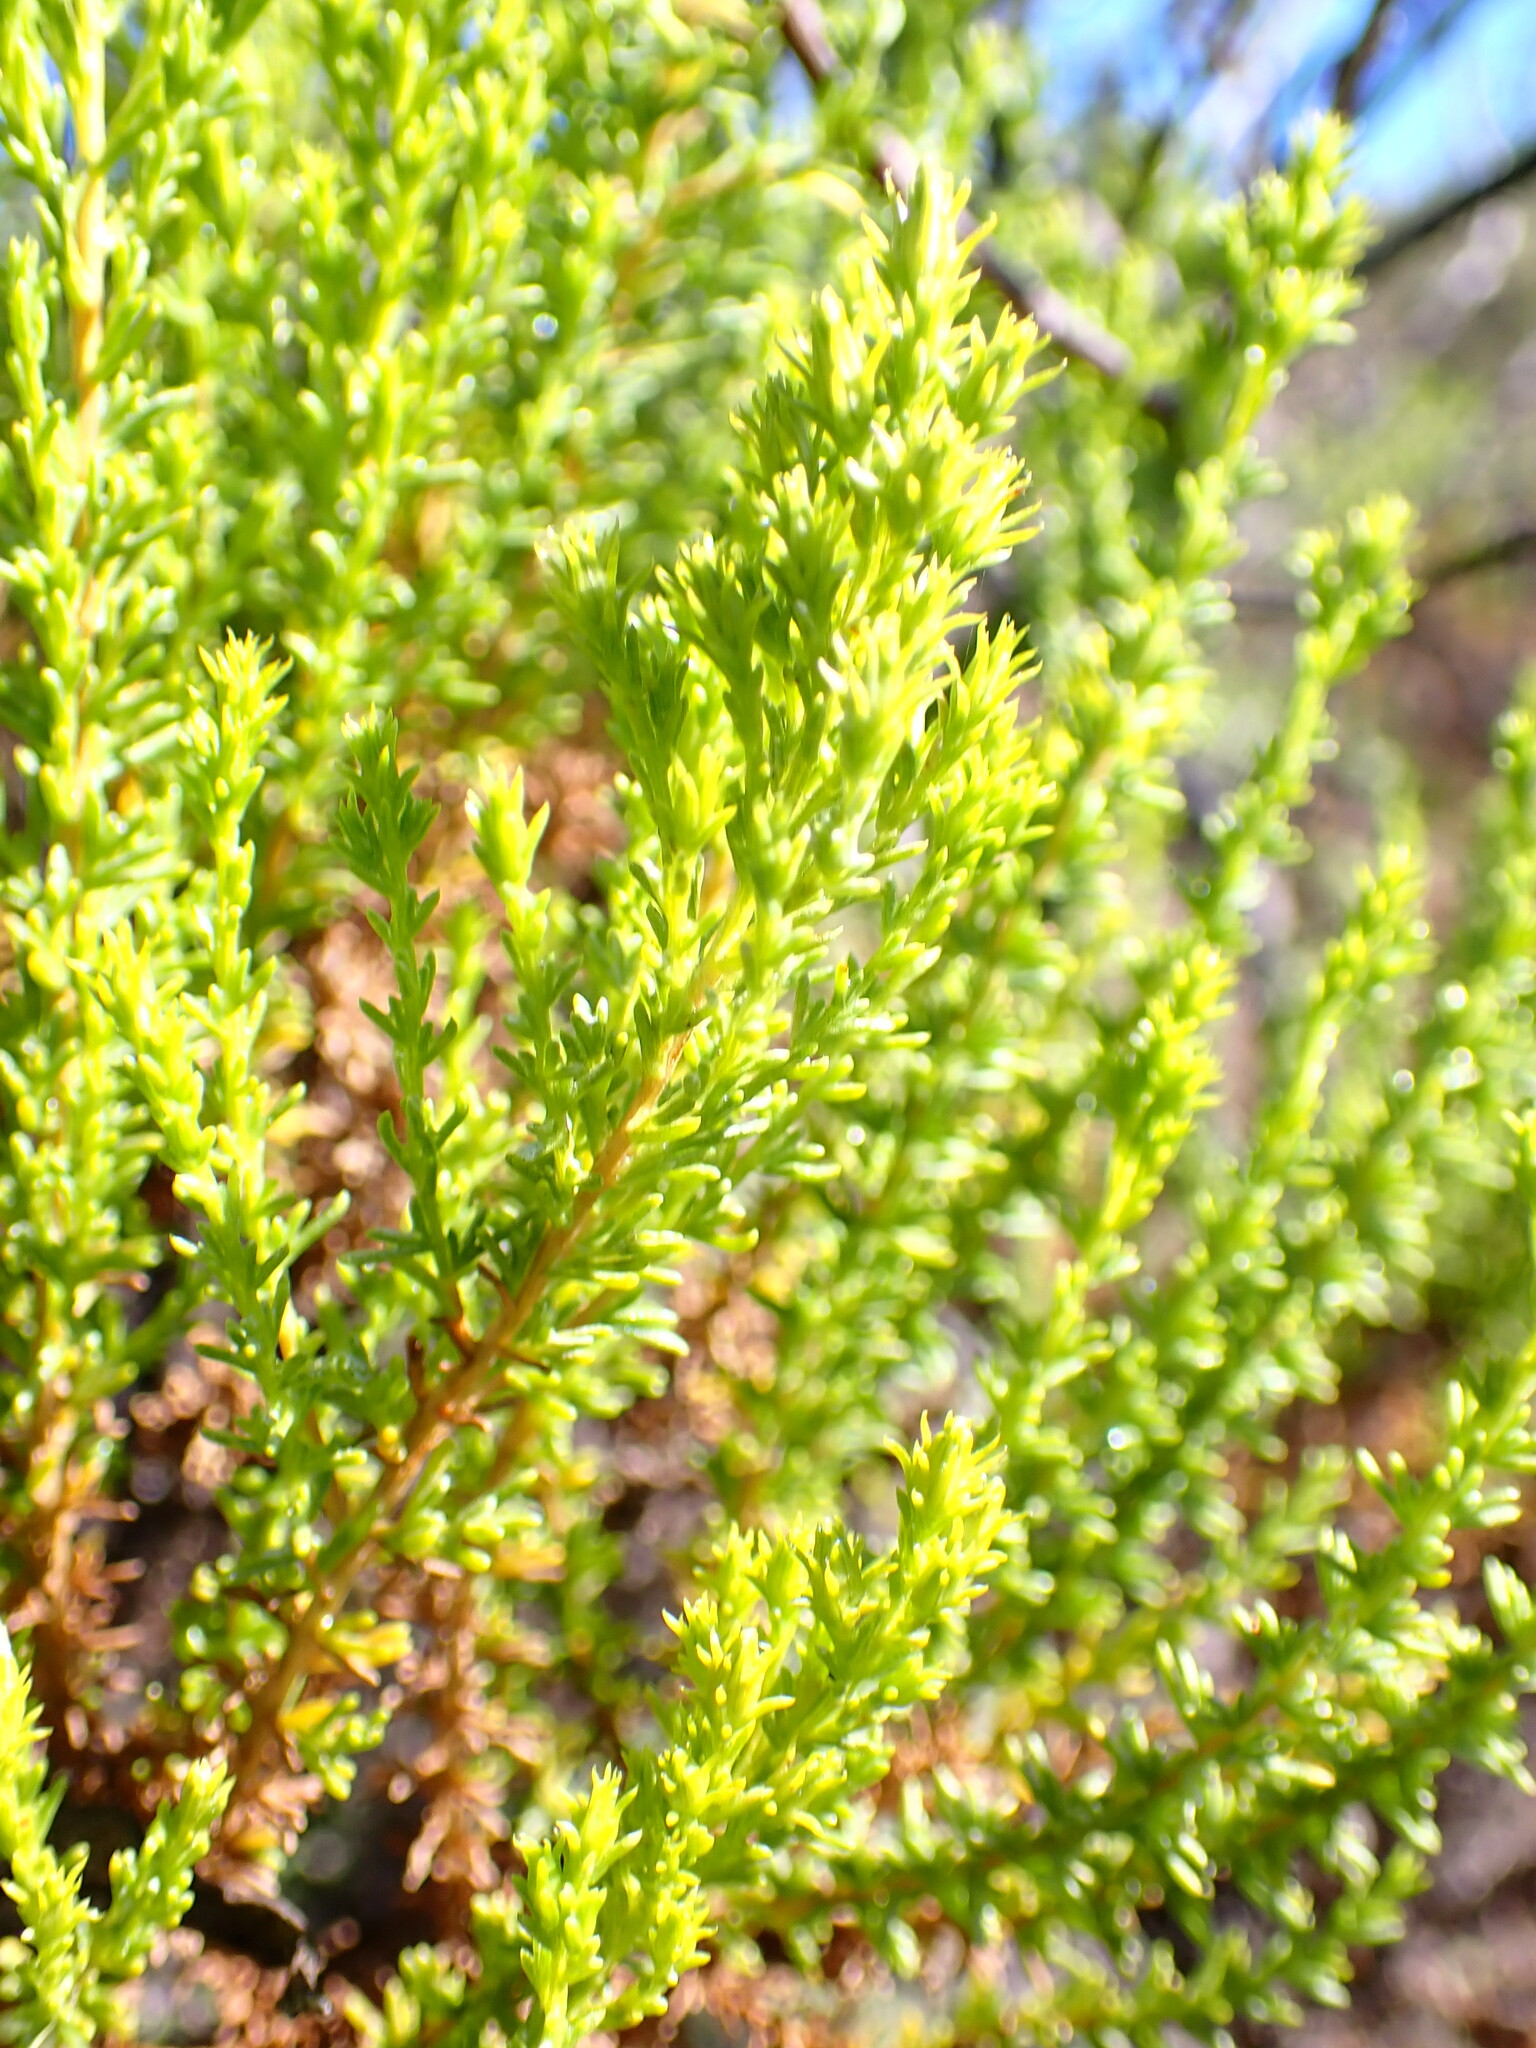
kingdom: Plantae
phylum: Tracheophyta
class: Magnoliopsida
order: Asterales
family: Asteraceae
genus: Ericameria
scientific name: Ericameria ericoides
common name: California goldenbush
